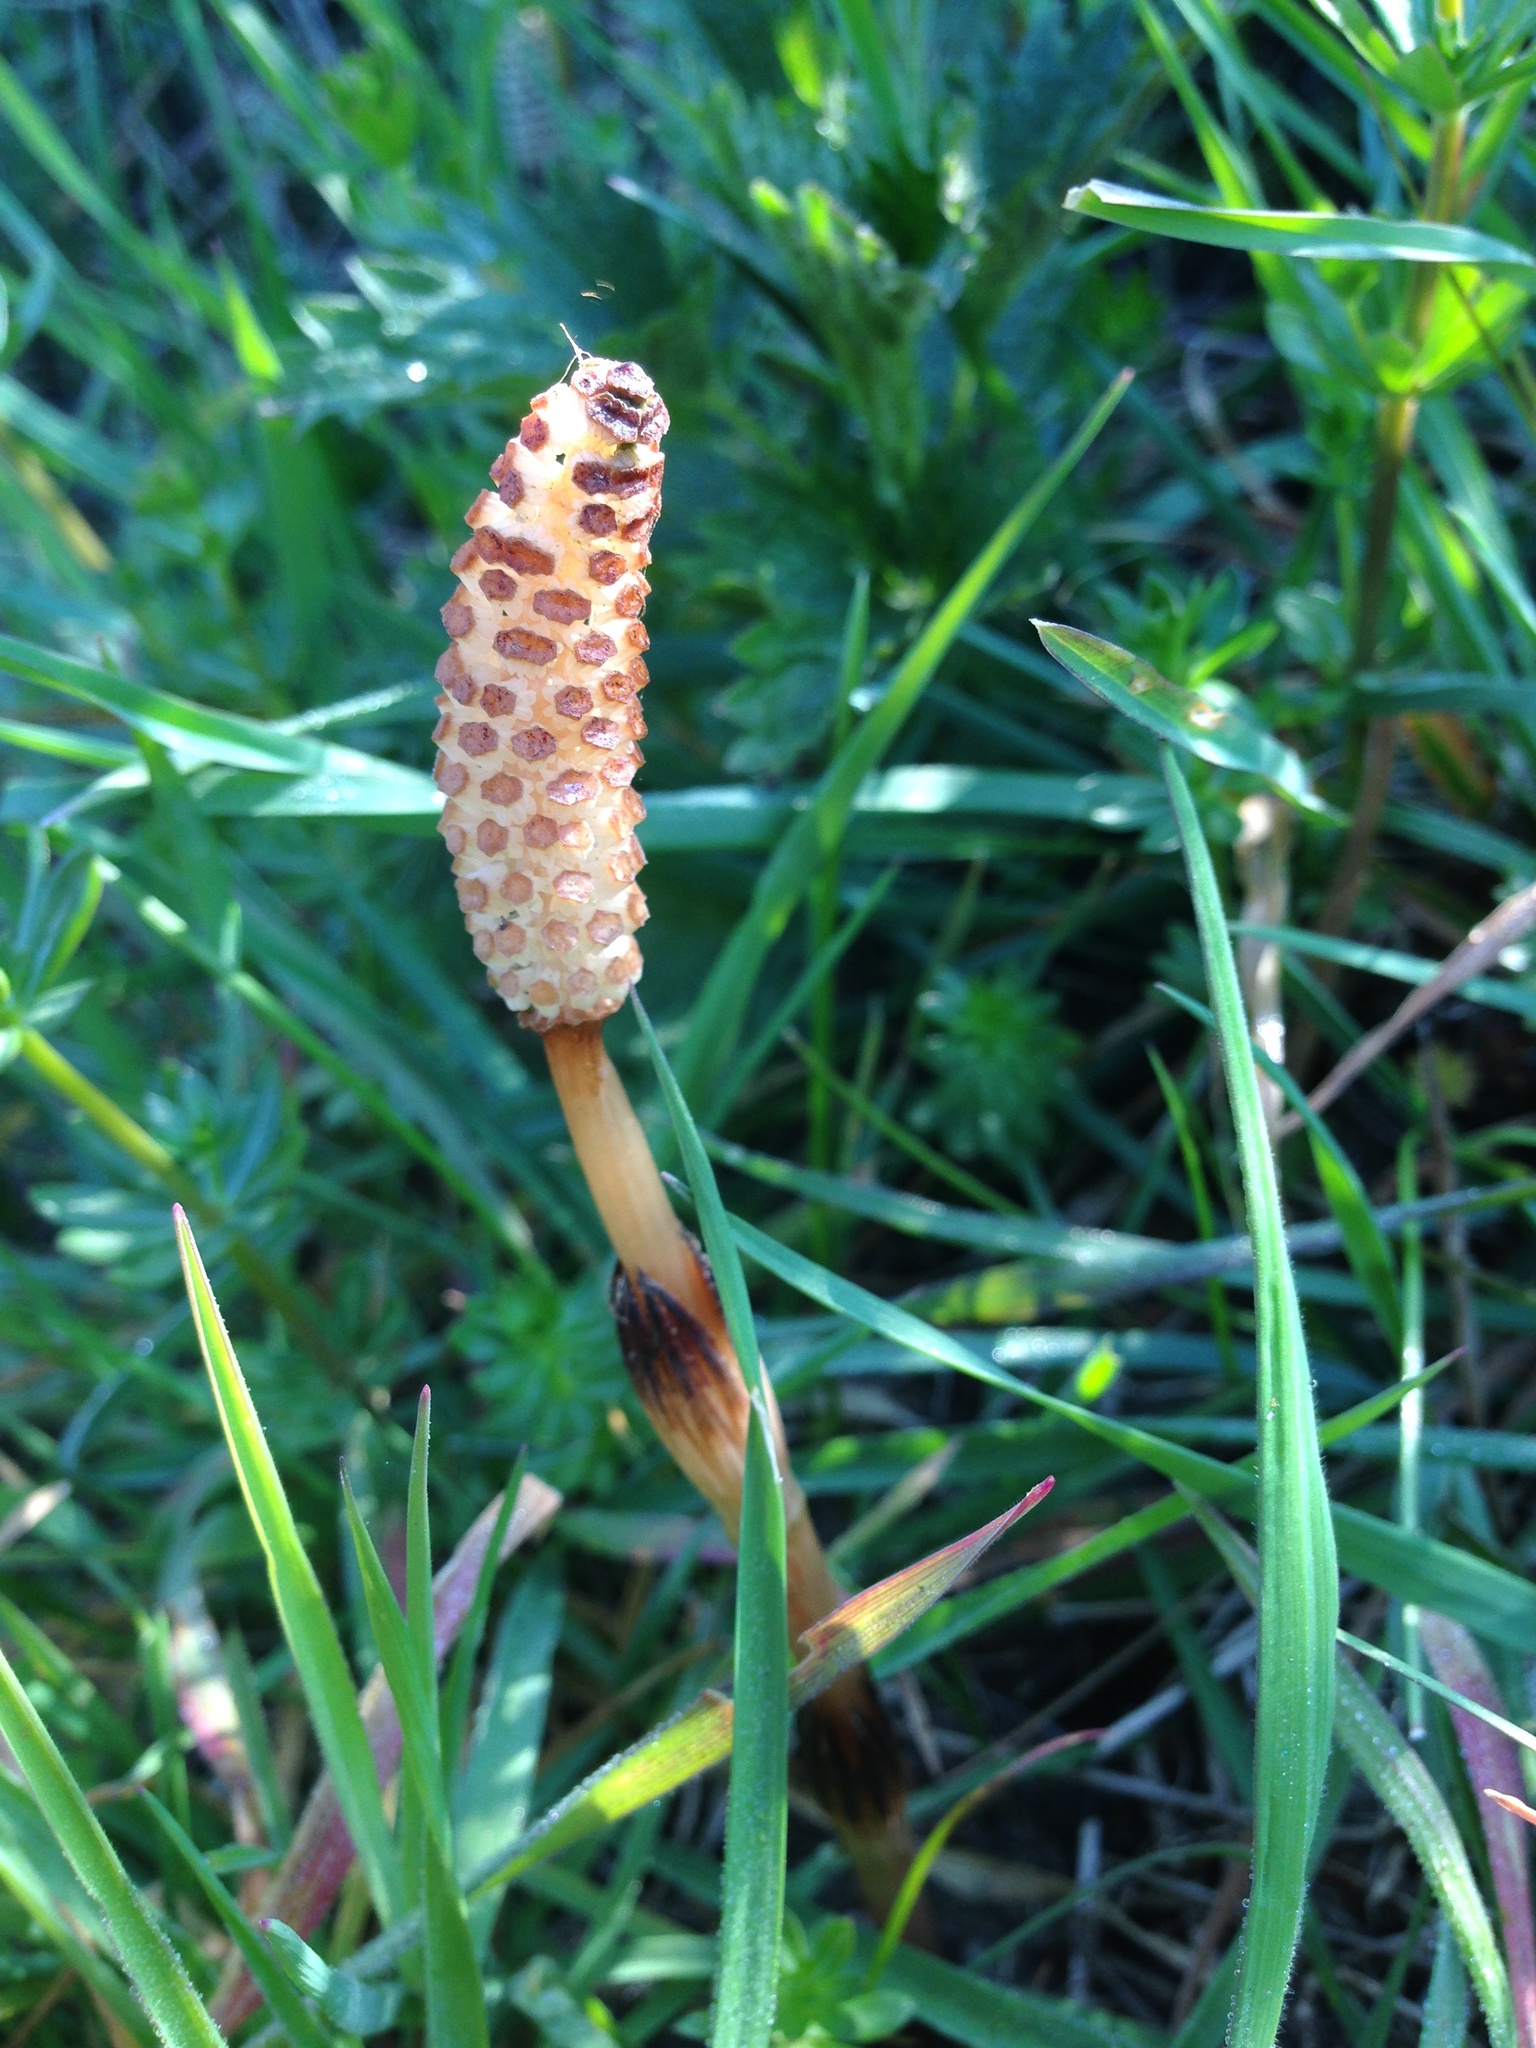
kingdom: Plantae
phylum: Tracheophyta
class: Polypodiopsida
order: Equisetales
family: Equisetaceae
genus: Equisetum
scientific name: Equisetum arvense
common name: Field horsetail
